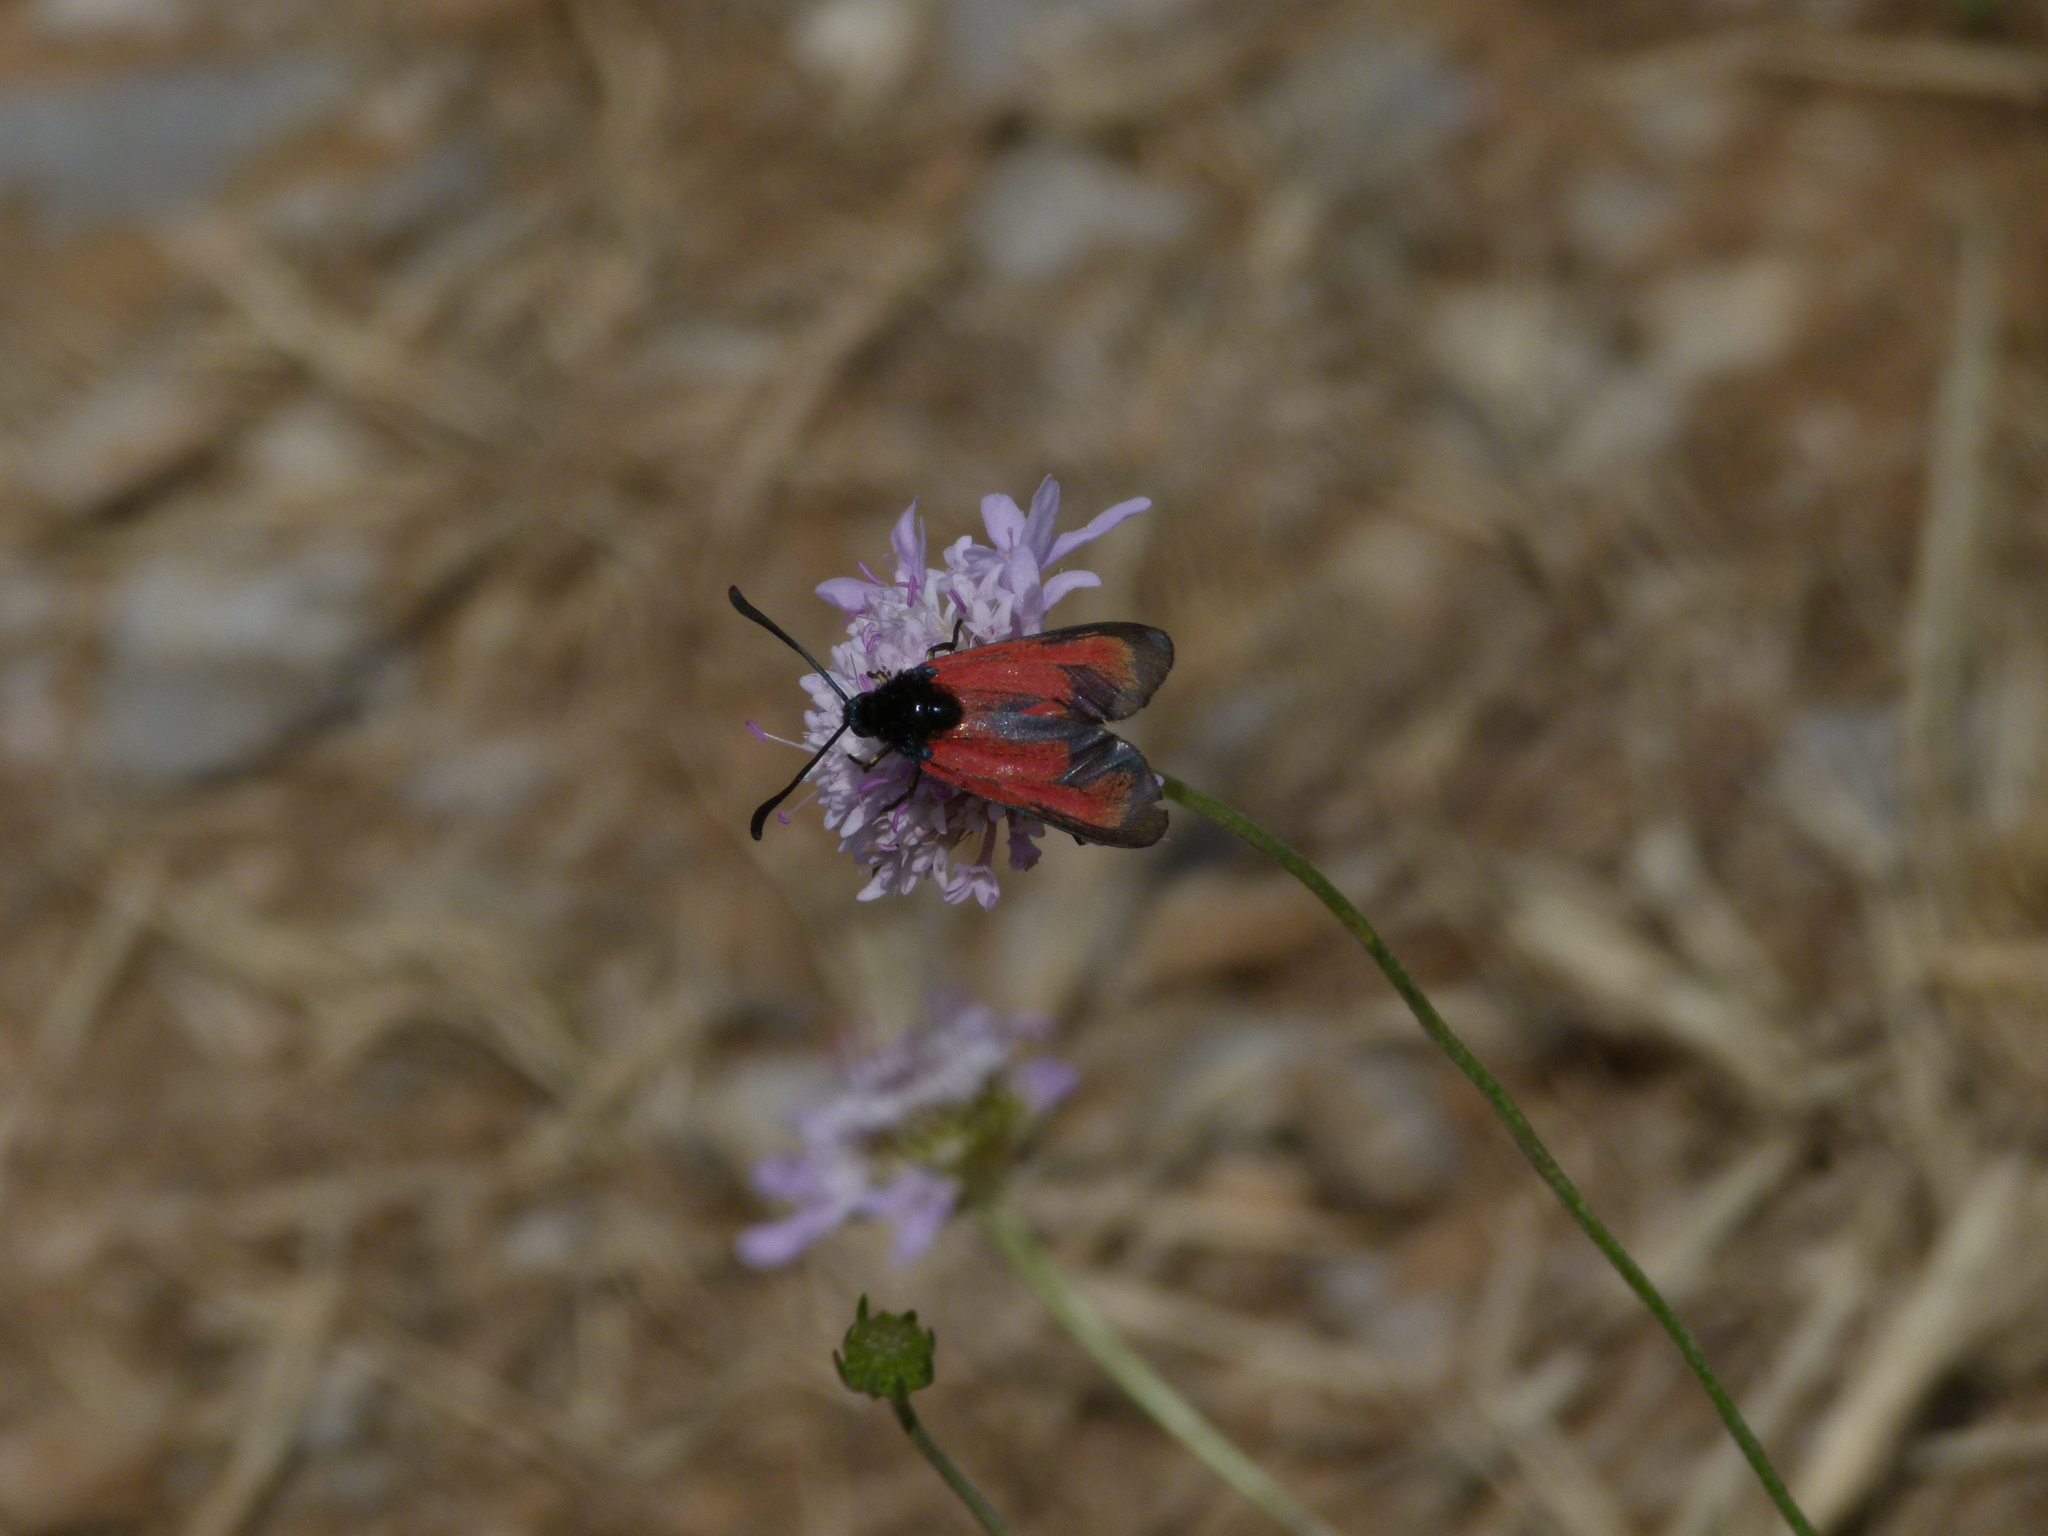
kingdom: Animalia
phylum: Arthropoda
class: Insecta
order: Lepidoptera
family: Zygaenidae
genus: Zygaena
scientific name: Zygaena erythrus
